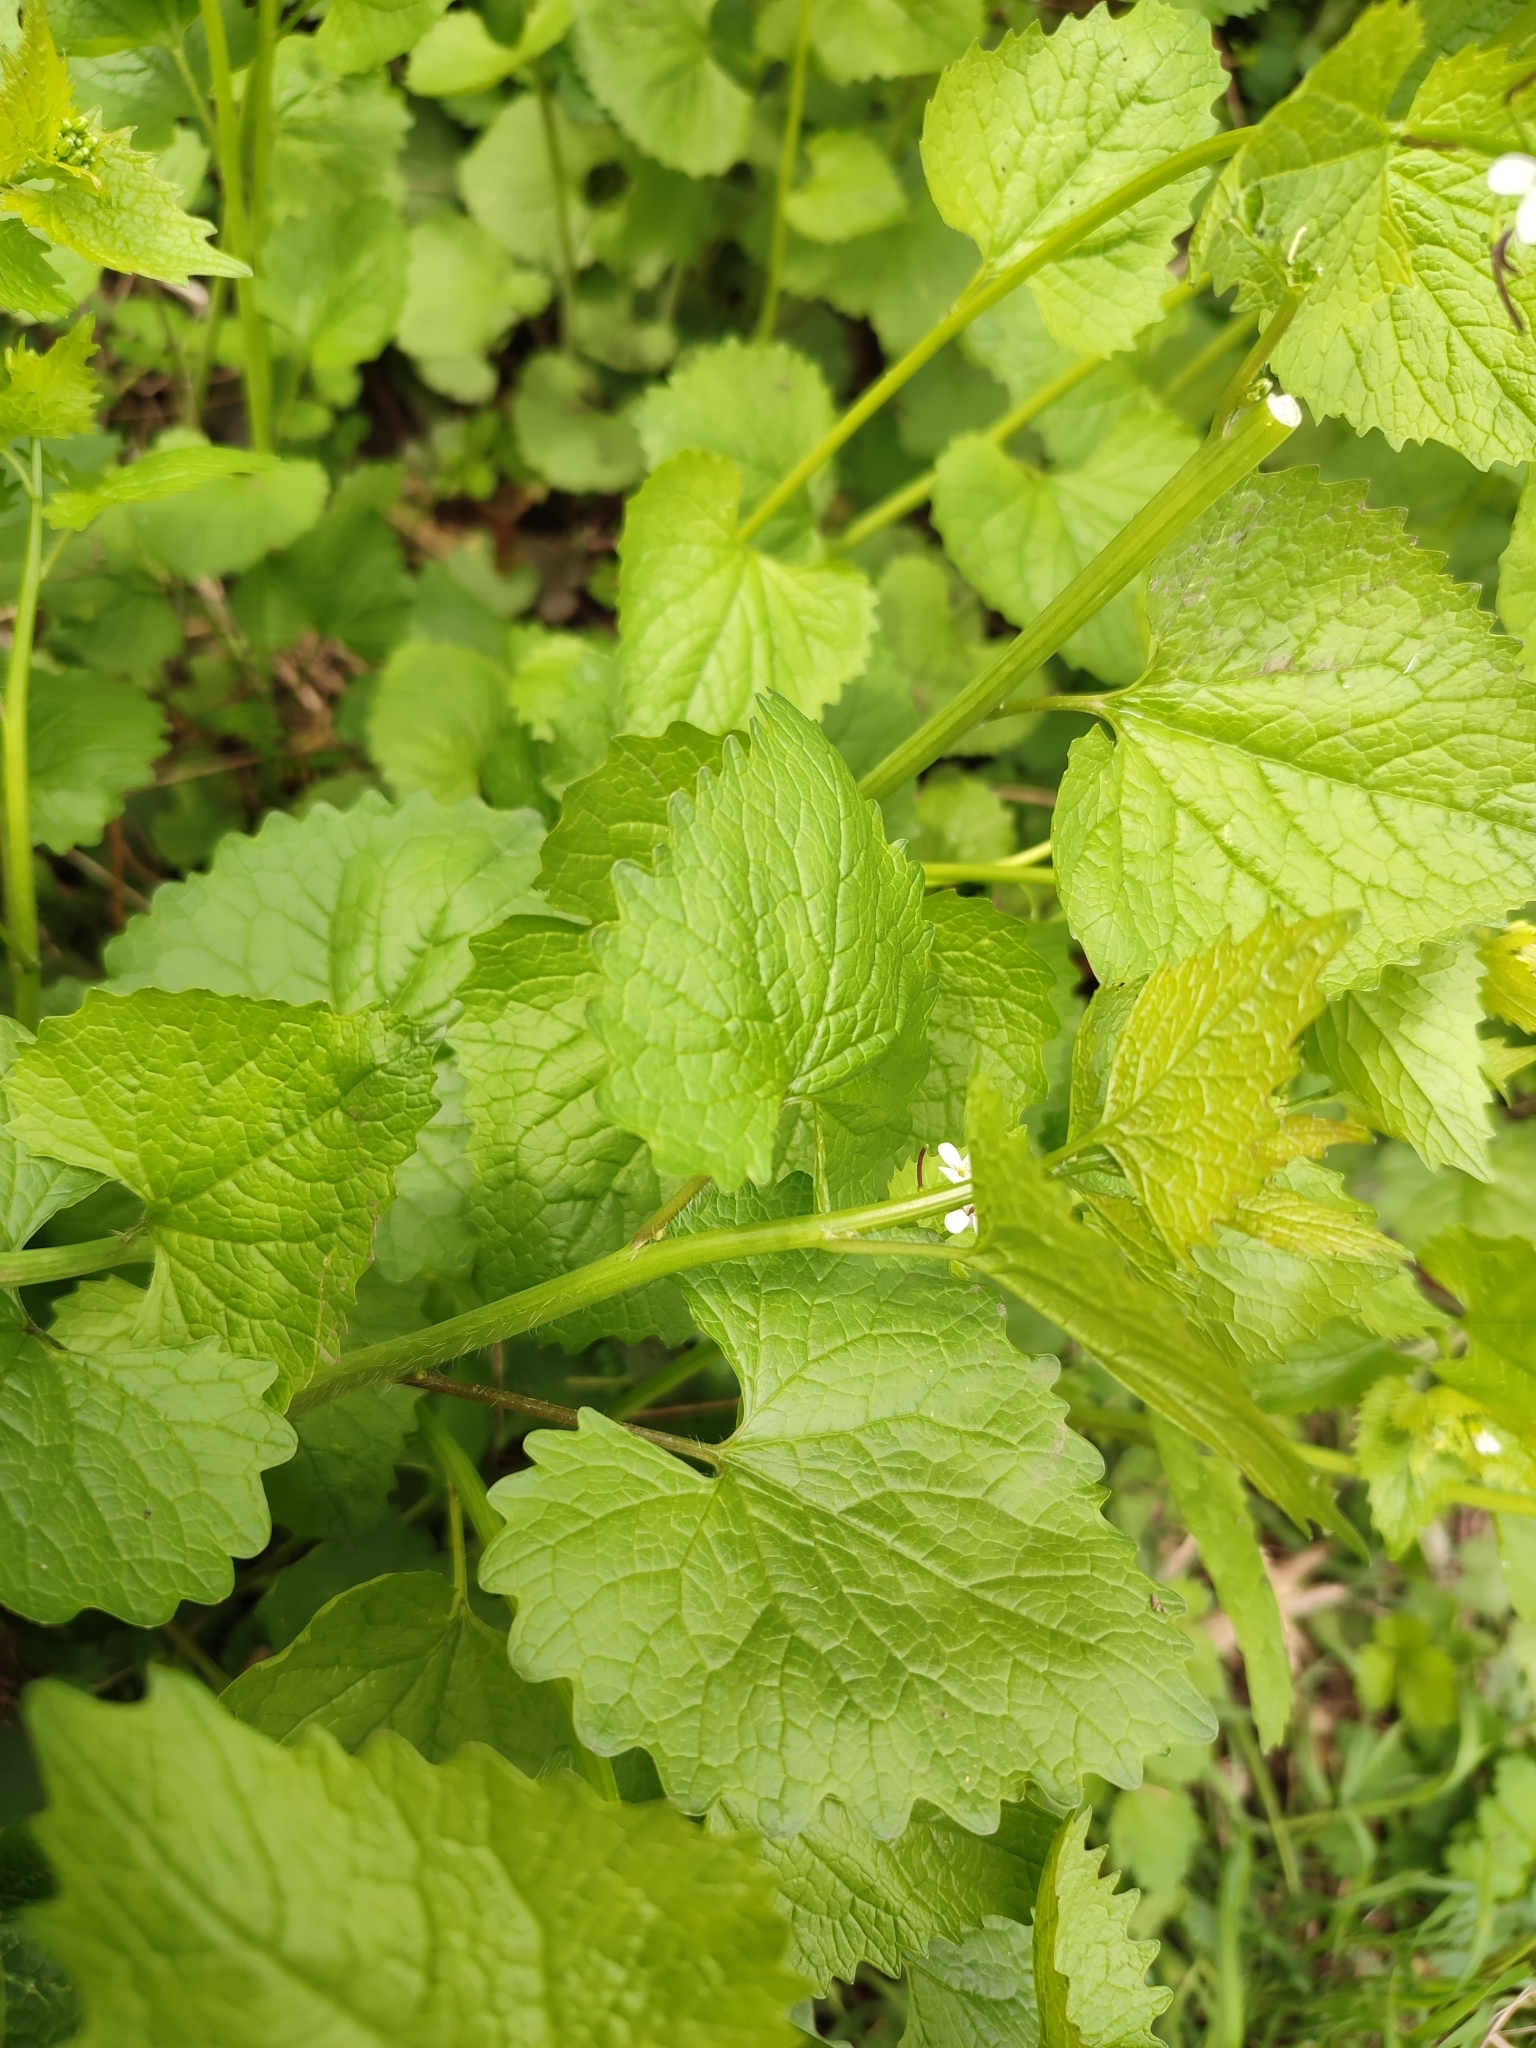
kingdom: Plantae
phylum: Tracheophyta
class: Magnoliopsida
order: Brassicales
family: Brassicaceae
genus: Alliaria
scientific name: Alliaria petiolata
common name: Garlic mustard
